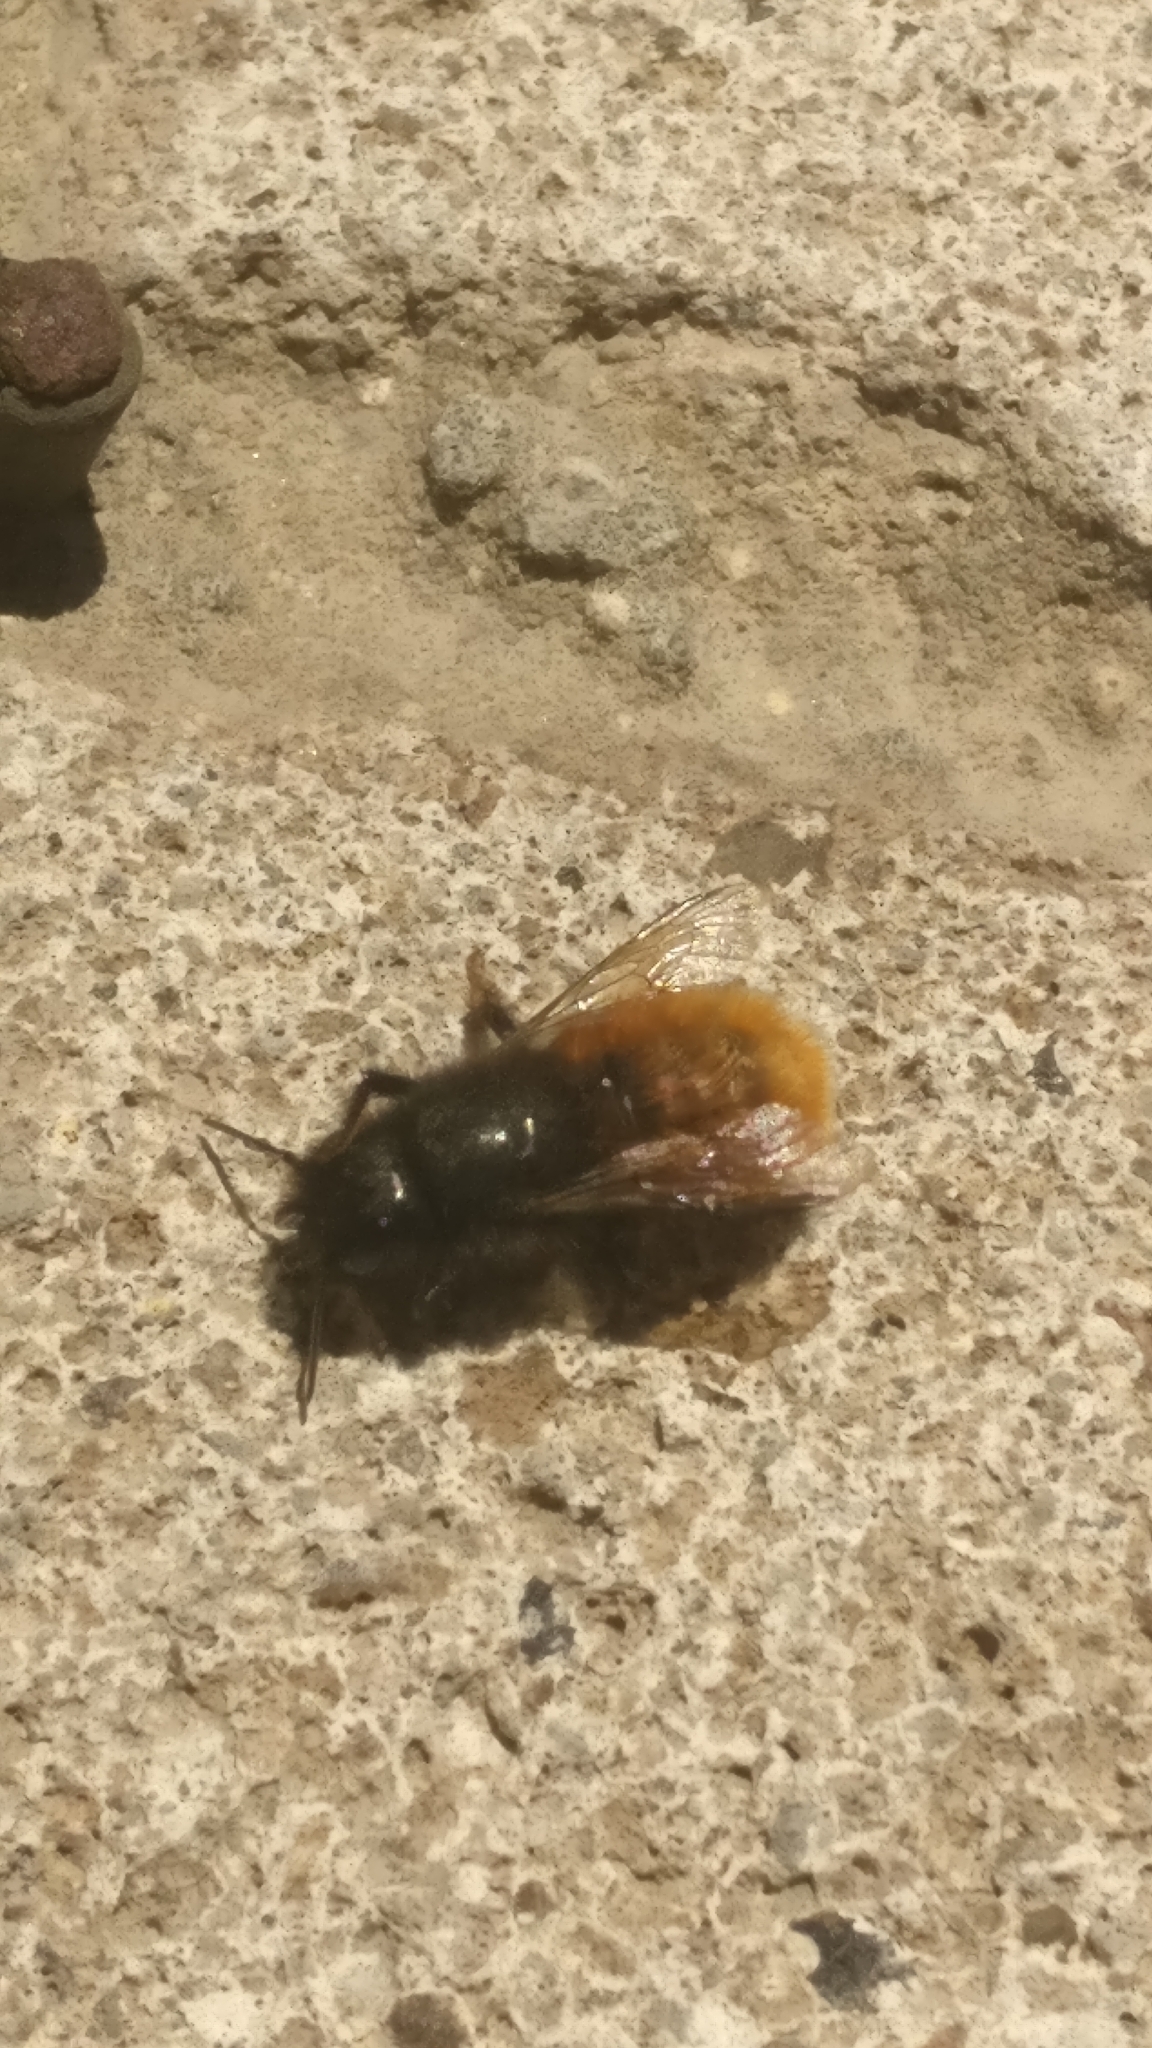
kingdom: Animalia
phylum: Arthropoda
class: Insecta
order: Hymenoptera
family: Megachilidae
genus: Osmia
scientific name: Osmia cornuta
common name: Mason bee
